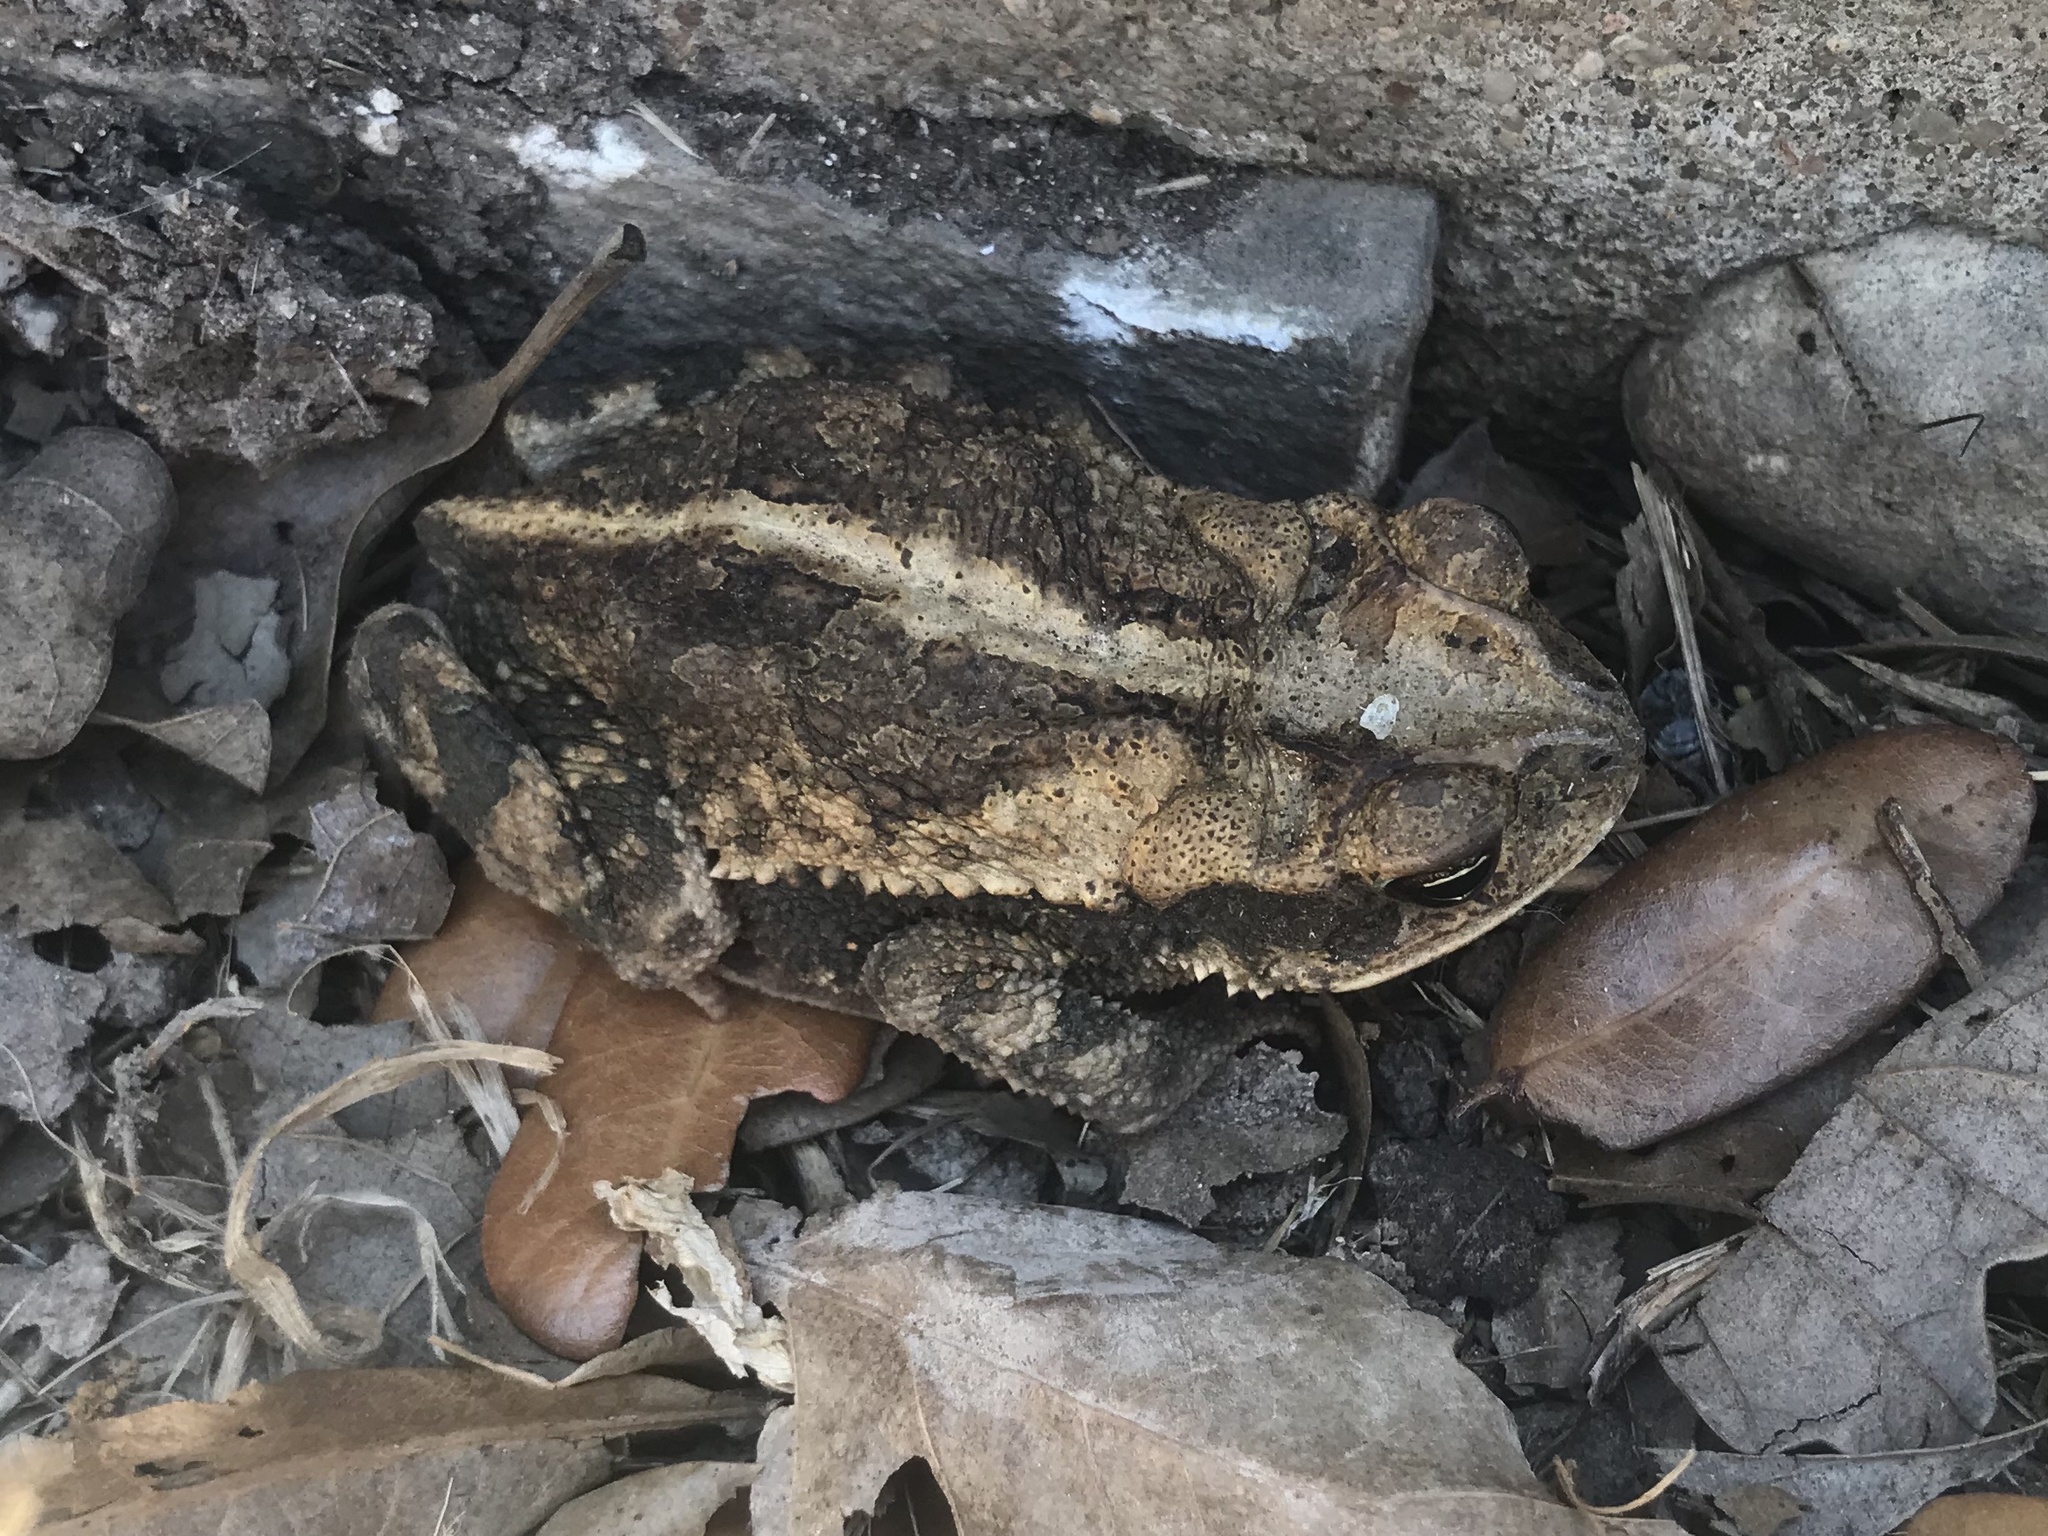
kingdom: Animalia
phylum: Chordata
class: Amphibia
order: Anura
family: Bufonidae
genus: Incilius
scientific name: Incilius nebulifer
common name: Gulf coast toad
